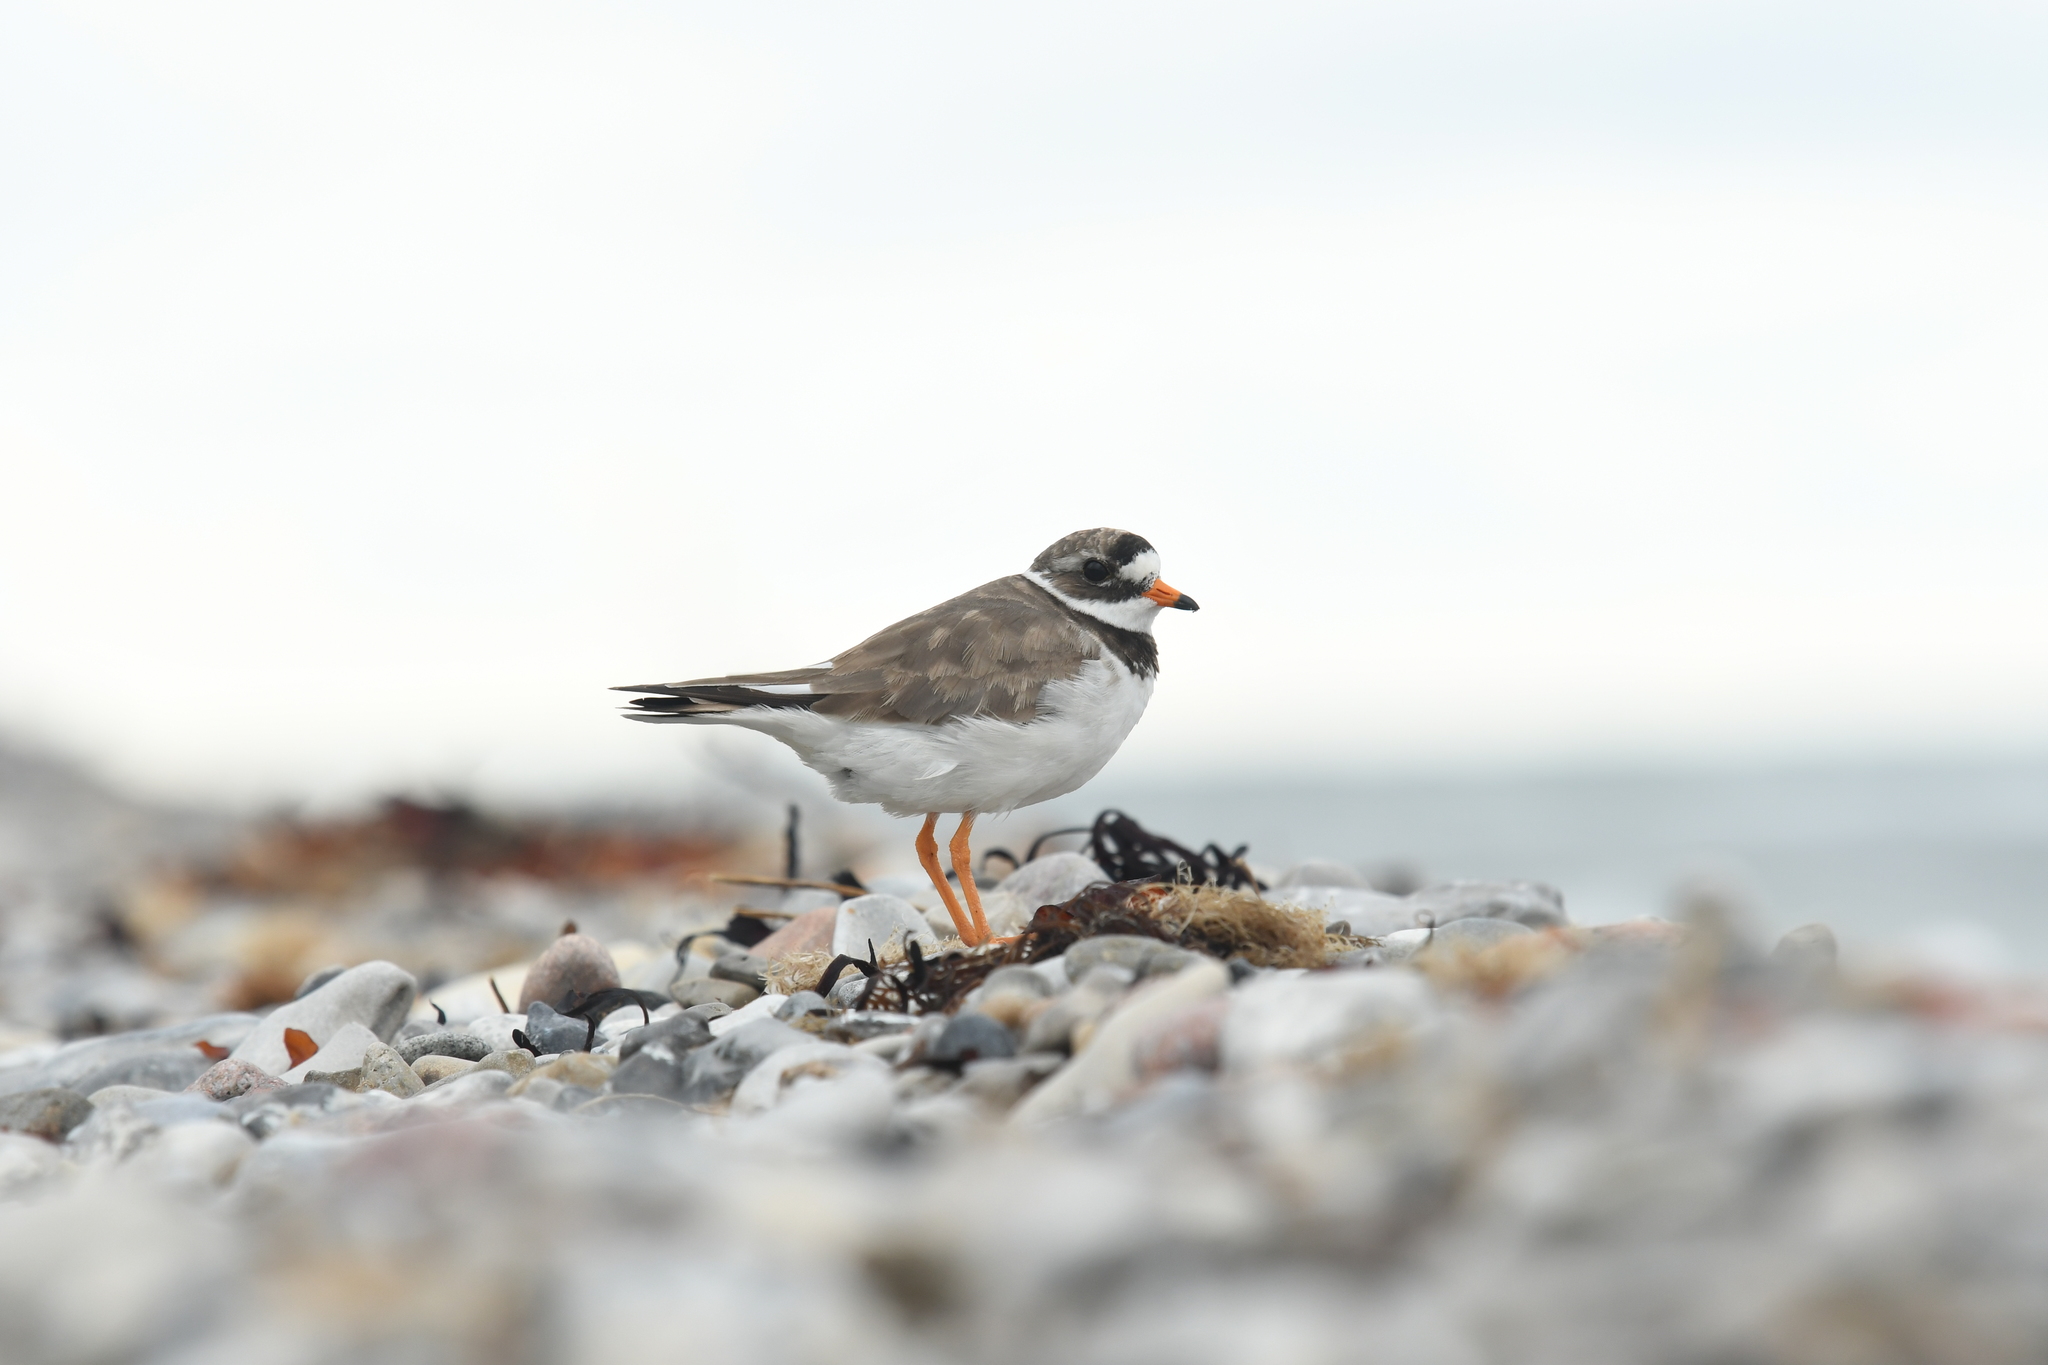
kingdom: Animalia
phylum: Chordata
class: Aves
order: Charadriiformes
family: Charadriidae
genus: Charadrius
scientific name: Charadrius hiaticula
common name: Common ringed plover
